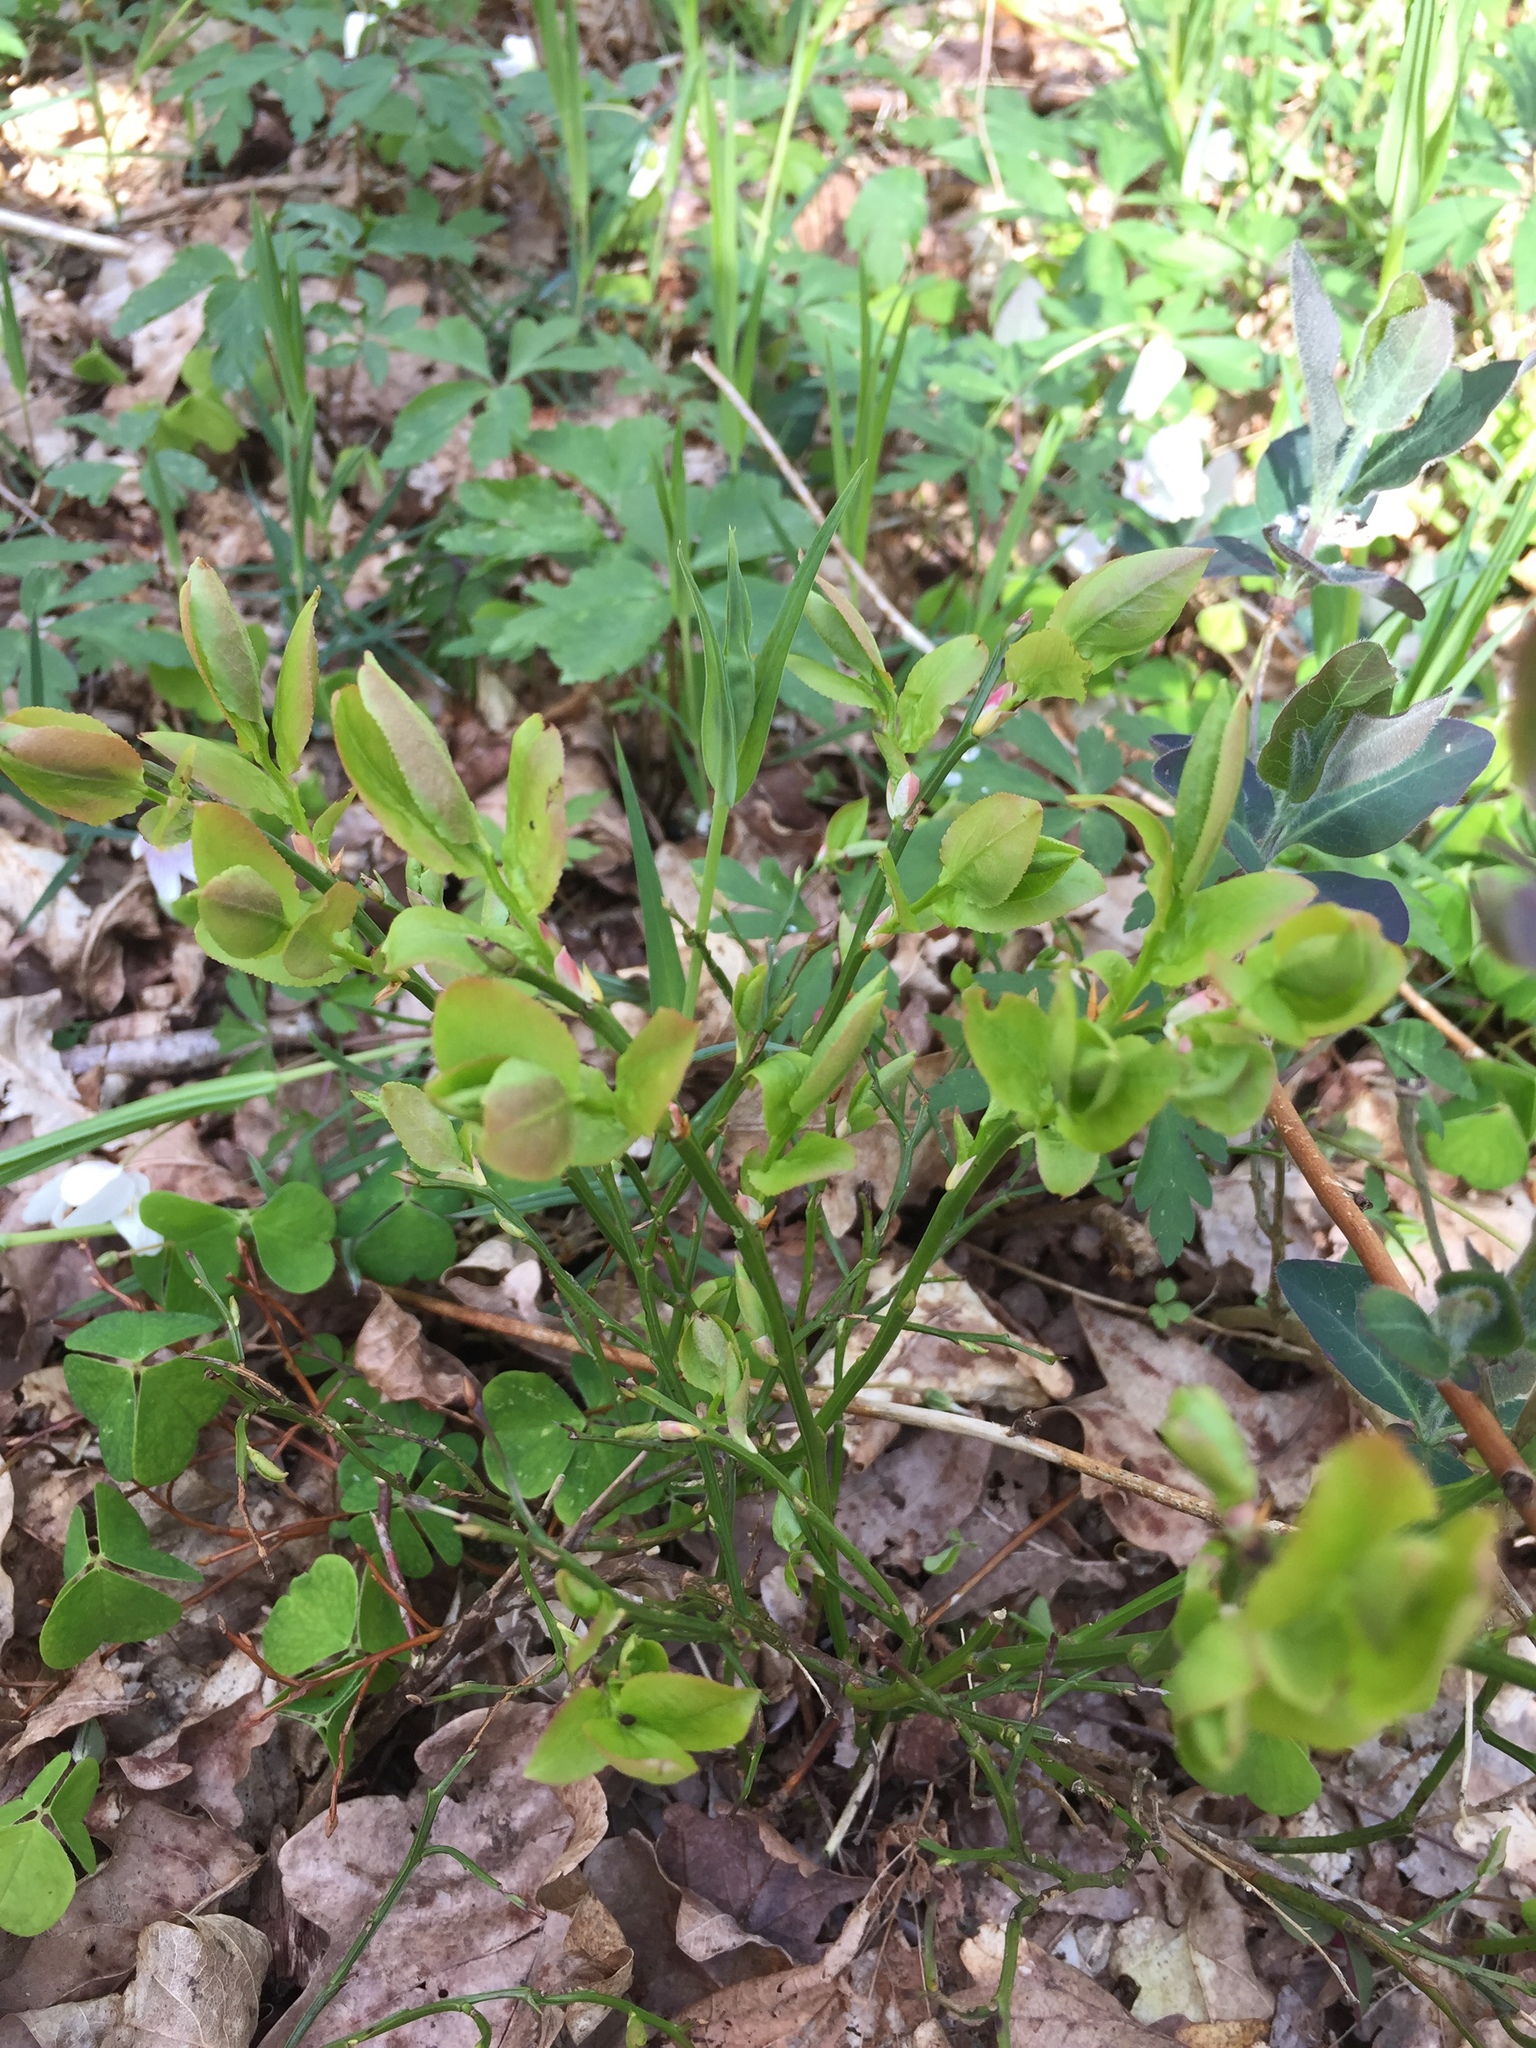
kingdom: Plantae
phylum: Tracheophyta
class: Magnoliopsida
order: Ericales
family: Ericaceae
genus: Vaccinium
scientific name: Vaccinium myrtillus
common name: Bilberry
